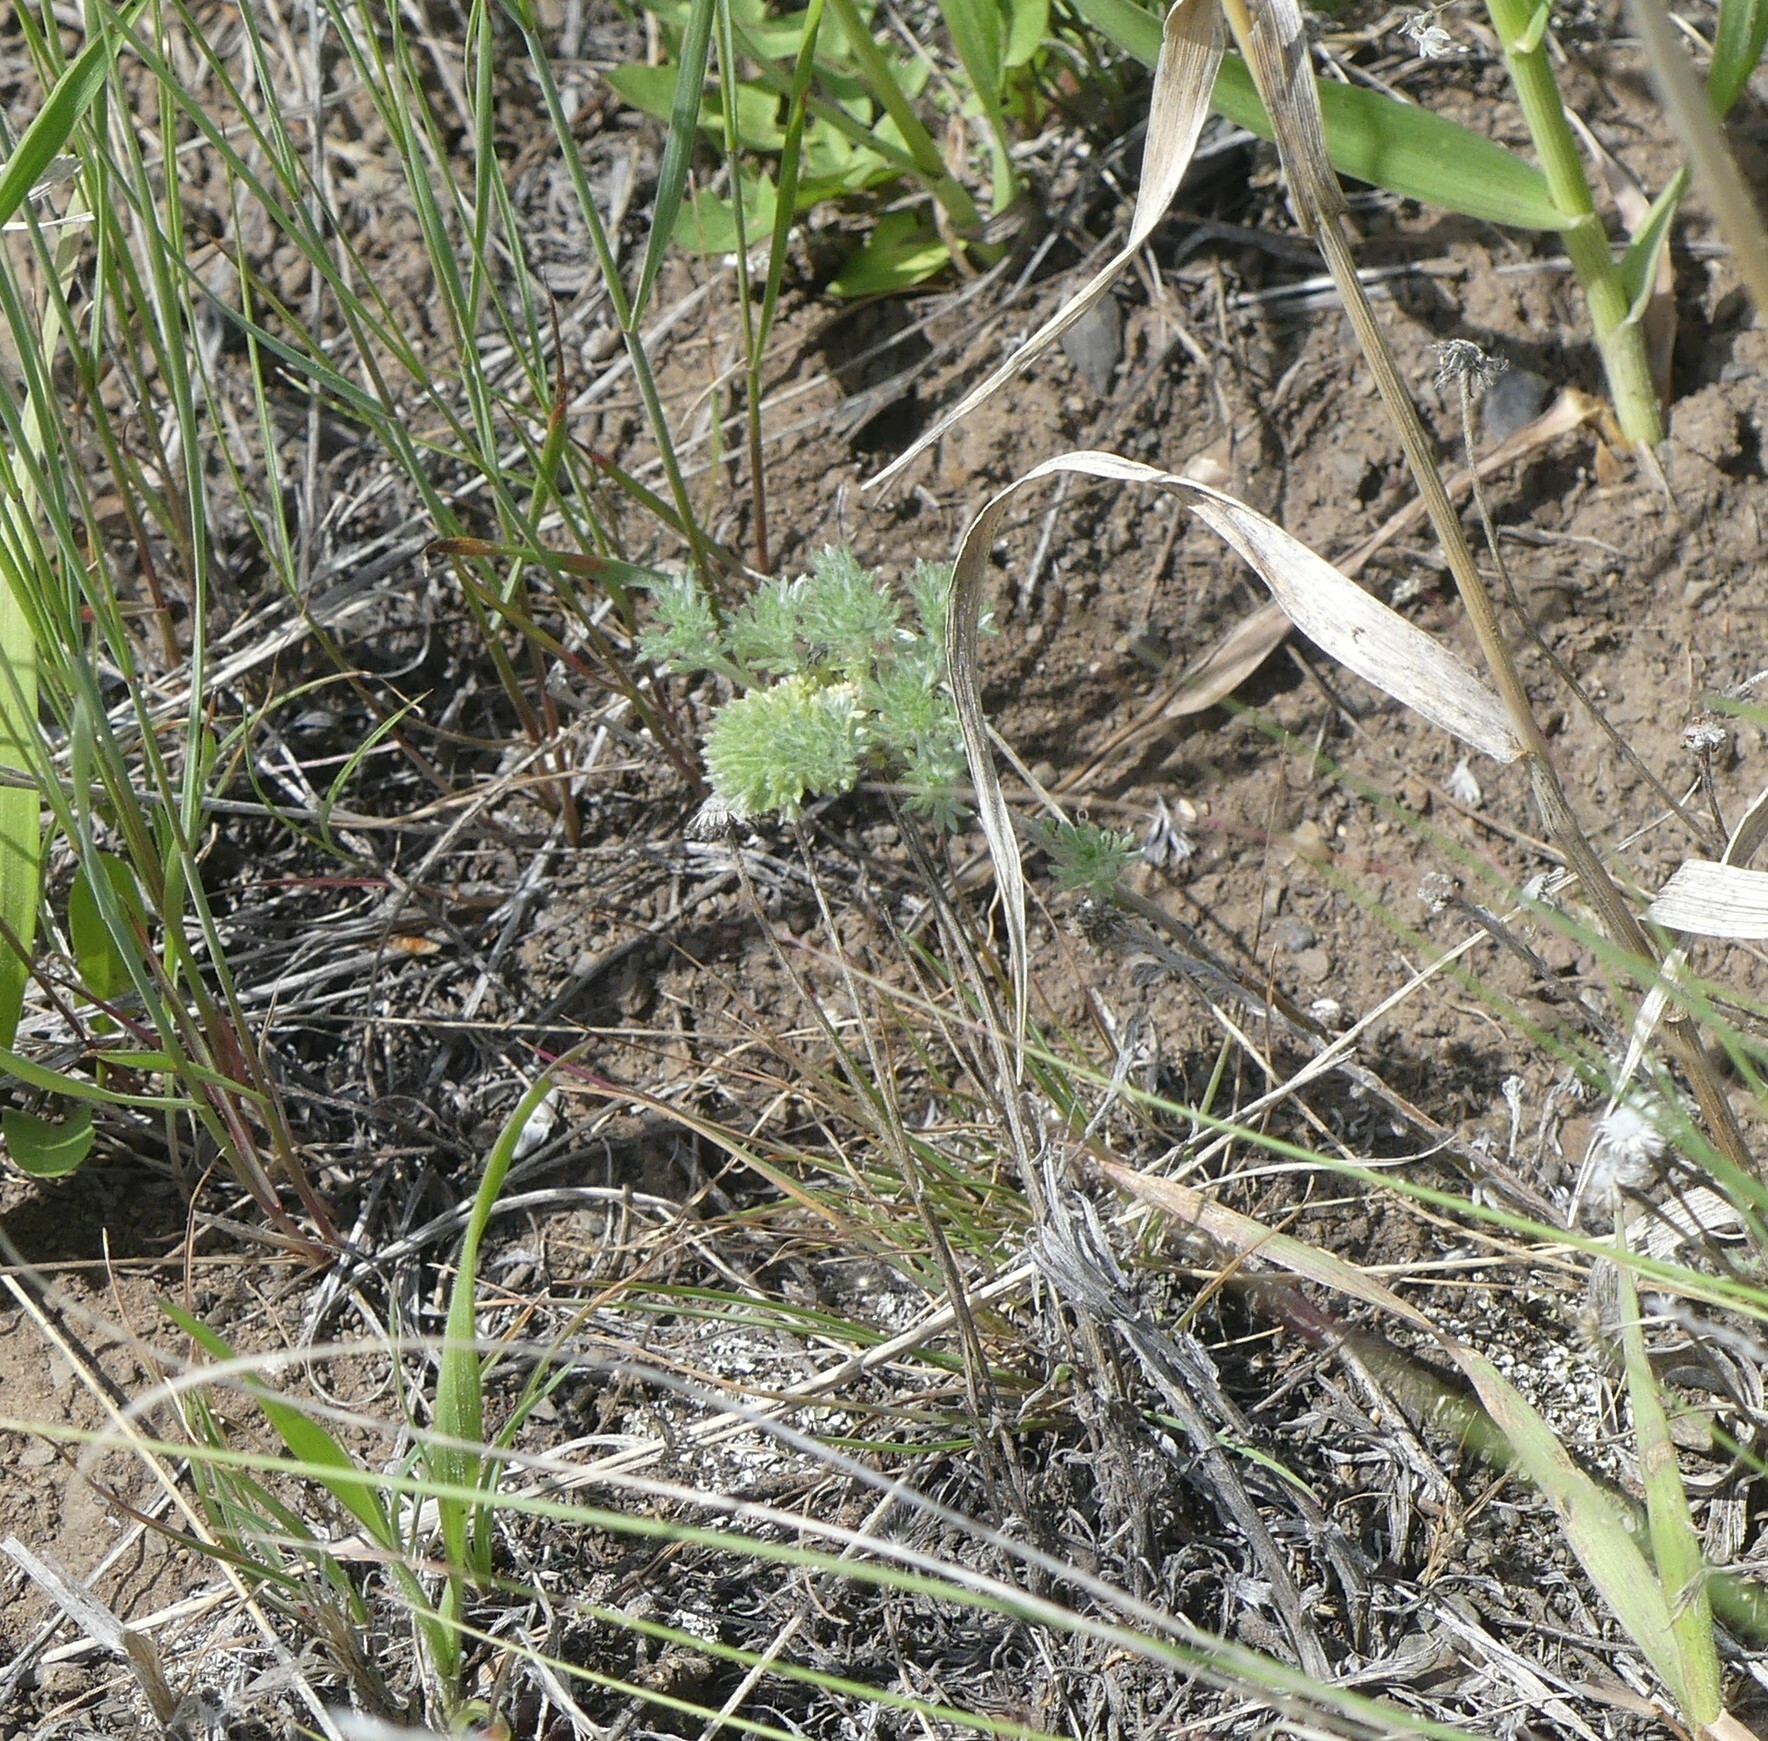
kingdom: Plantae
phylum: Tracheophyta
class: Magnoliopsida
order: Asterales
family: Asteraceae
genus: Artemisia
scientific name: Artemisia frigida
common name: Prairie sagewort
